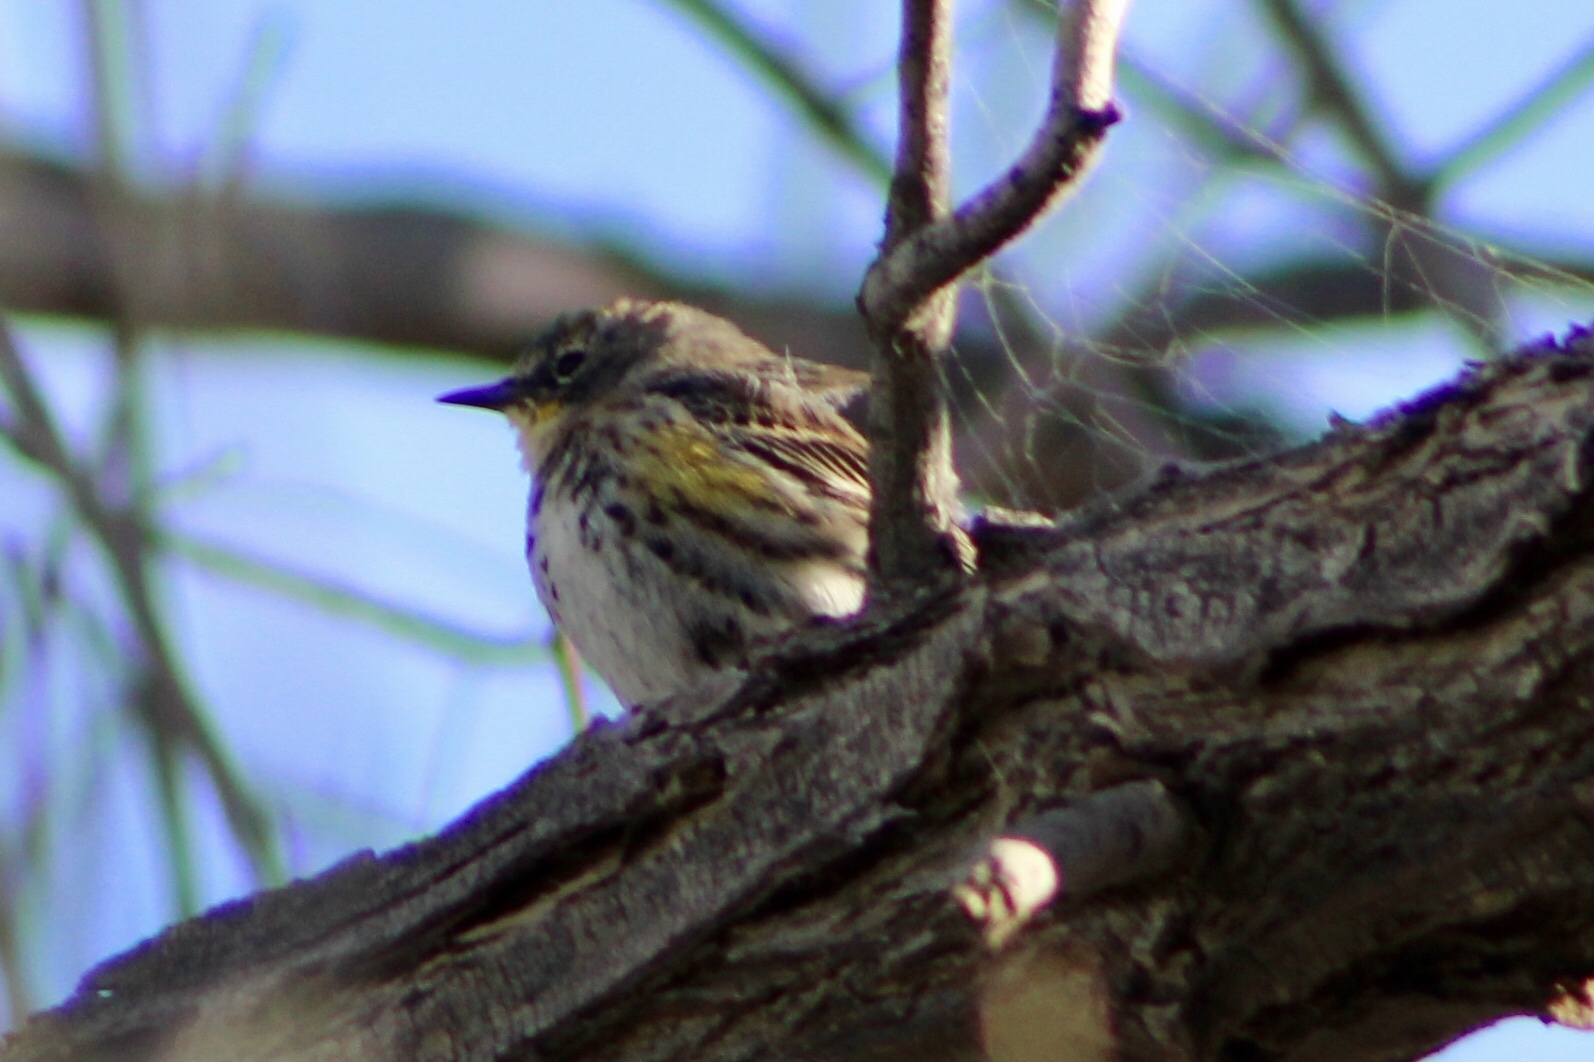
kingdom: Animalia
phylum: Chordata
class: Aves
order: Passeriformes
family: Parulidae
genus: Setophaga
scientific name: Setophaga auduboni
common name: Audubon's warbler
